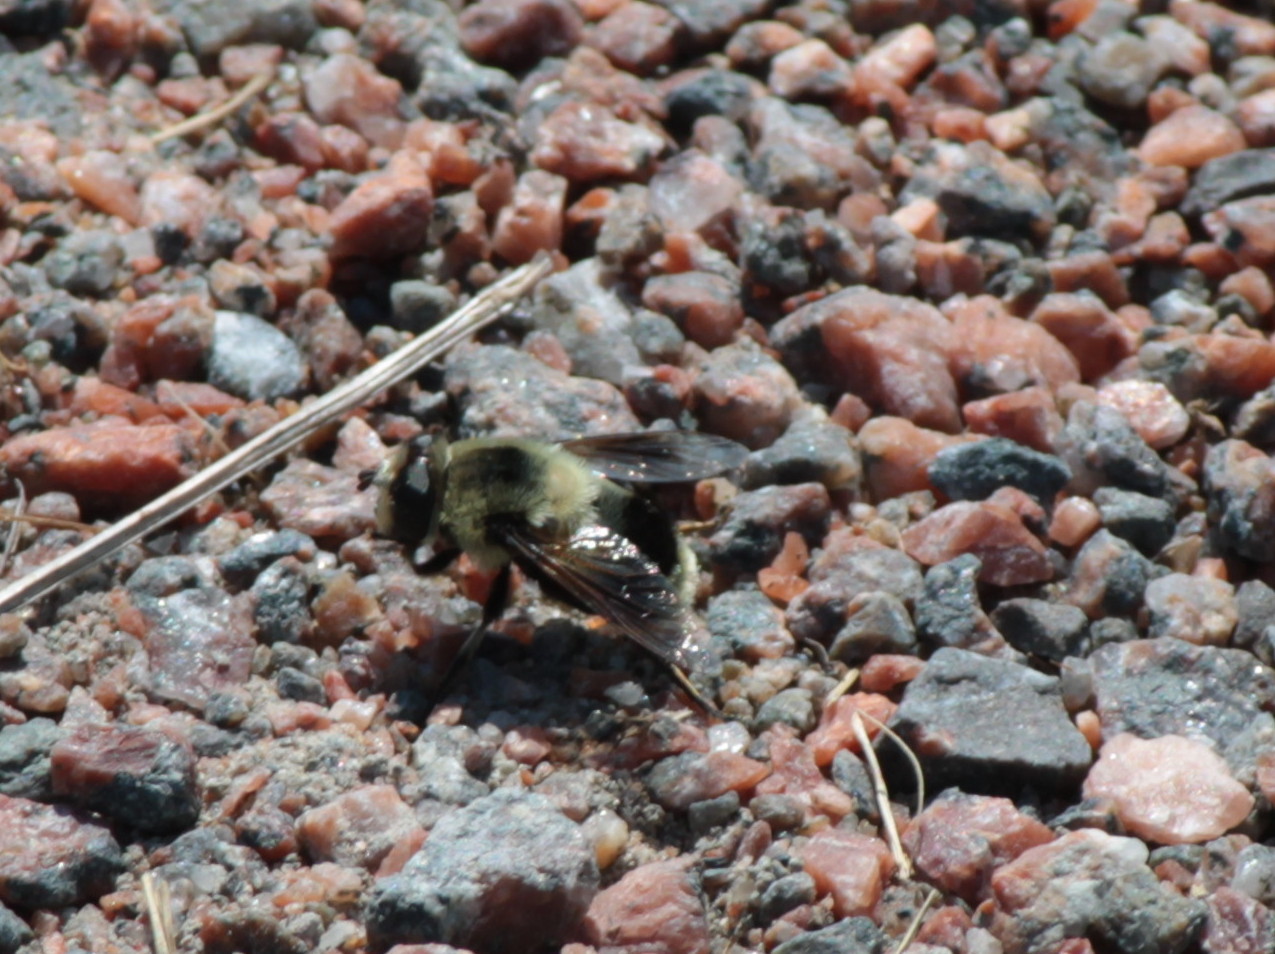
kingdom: Animalia
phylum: Arthropoda
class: Insecta
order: Diptera
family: Syrphidae
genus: Eristalis
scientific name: Eristalis anthophorina
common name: Orange-spotted drone fly
